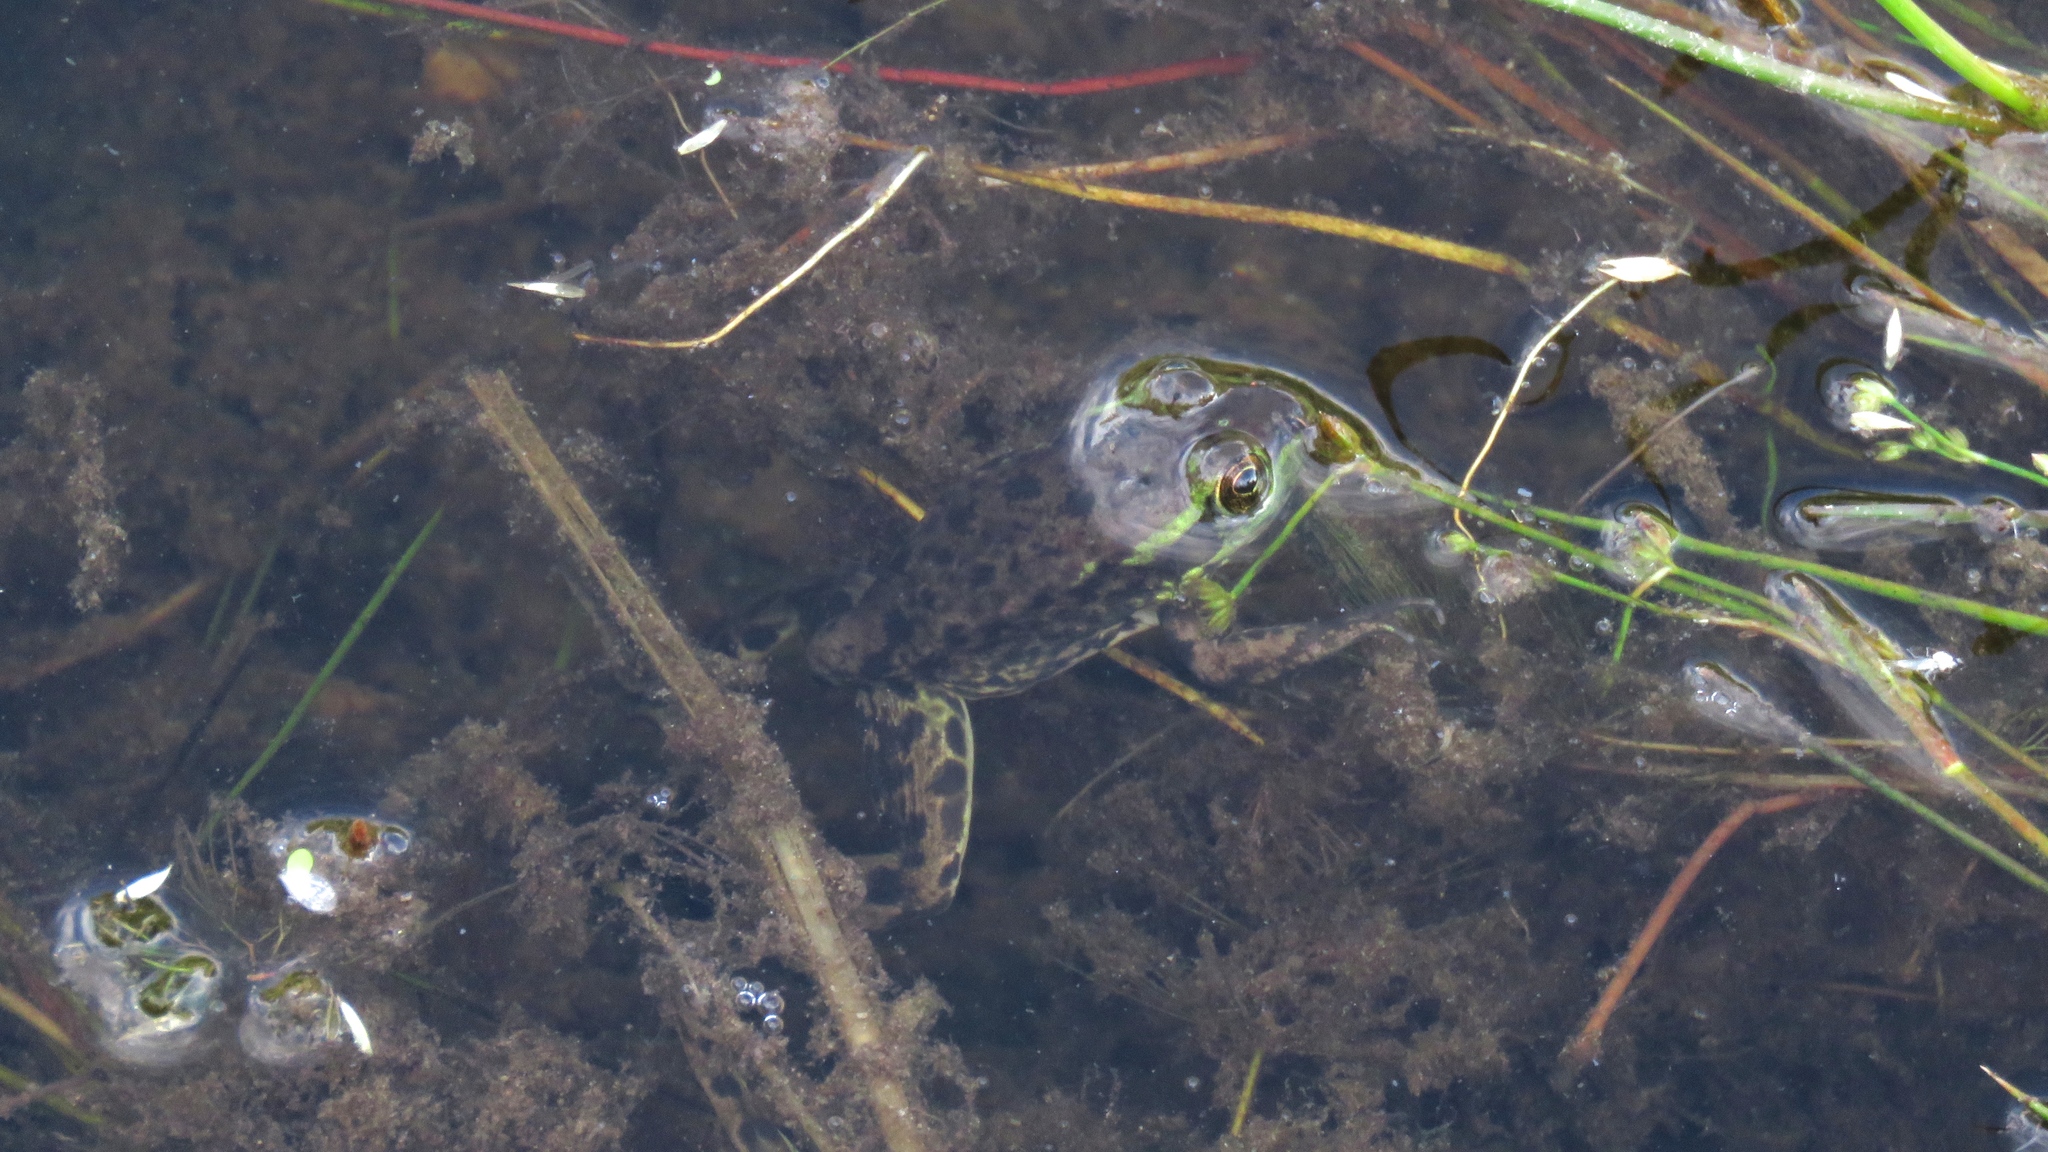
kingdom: Animalia
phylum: Chordata
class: Amphibia
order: Anura
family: Ranidae
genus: Lithobates
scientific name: Lithobates septentrionalis
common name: Mink frog
